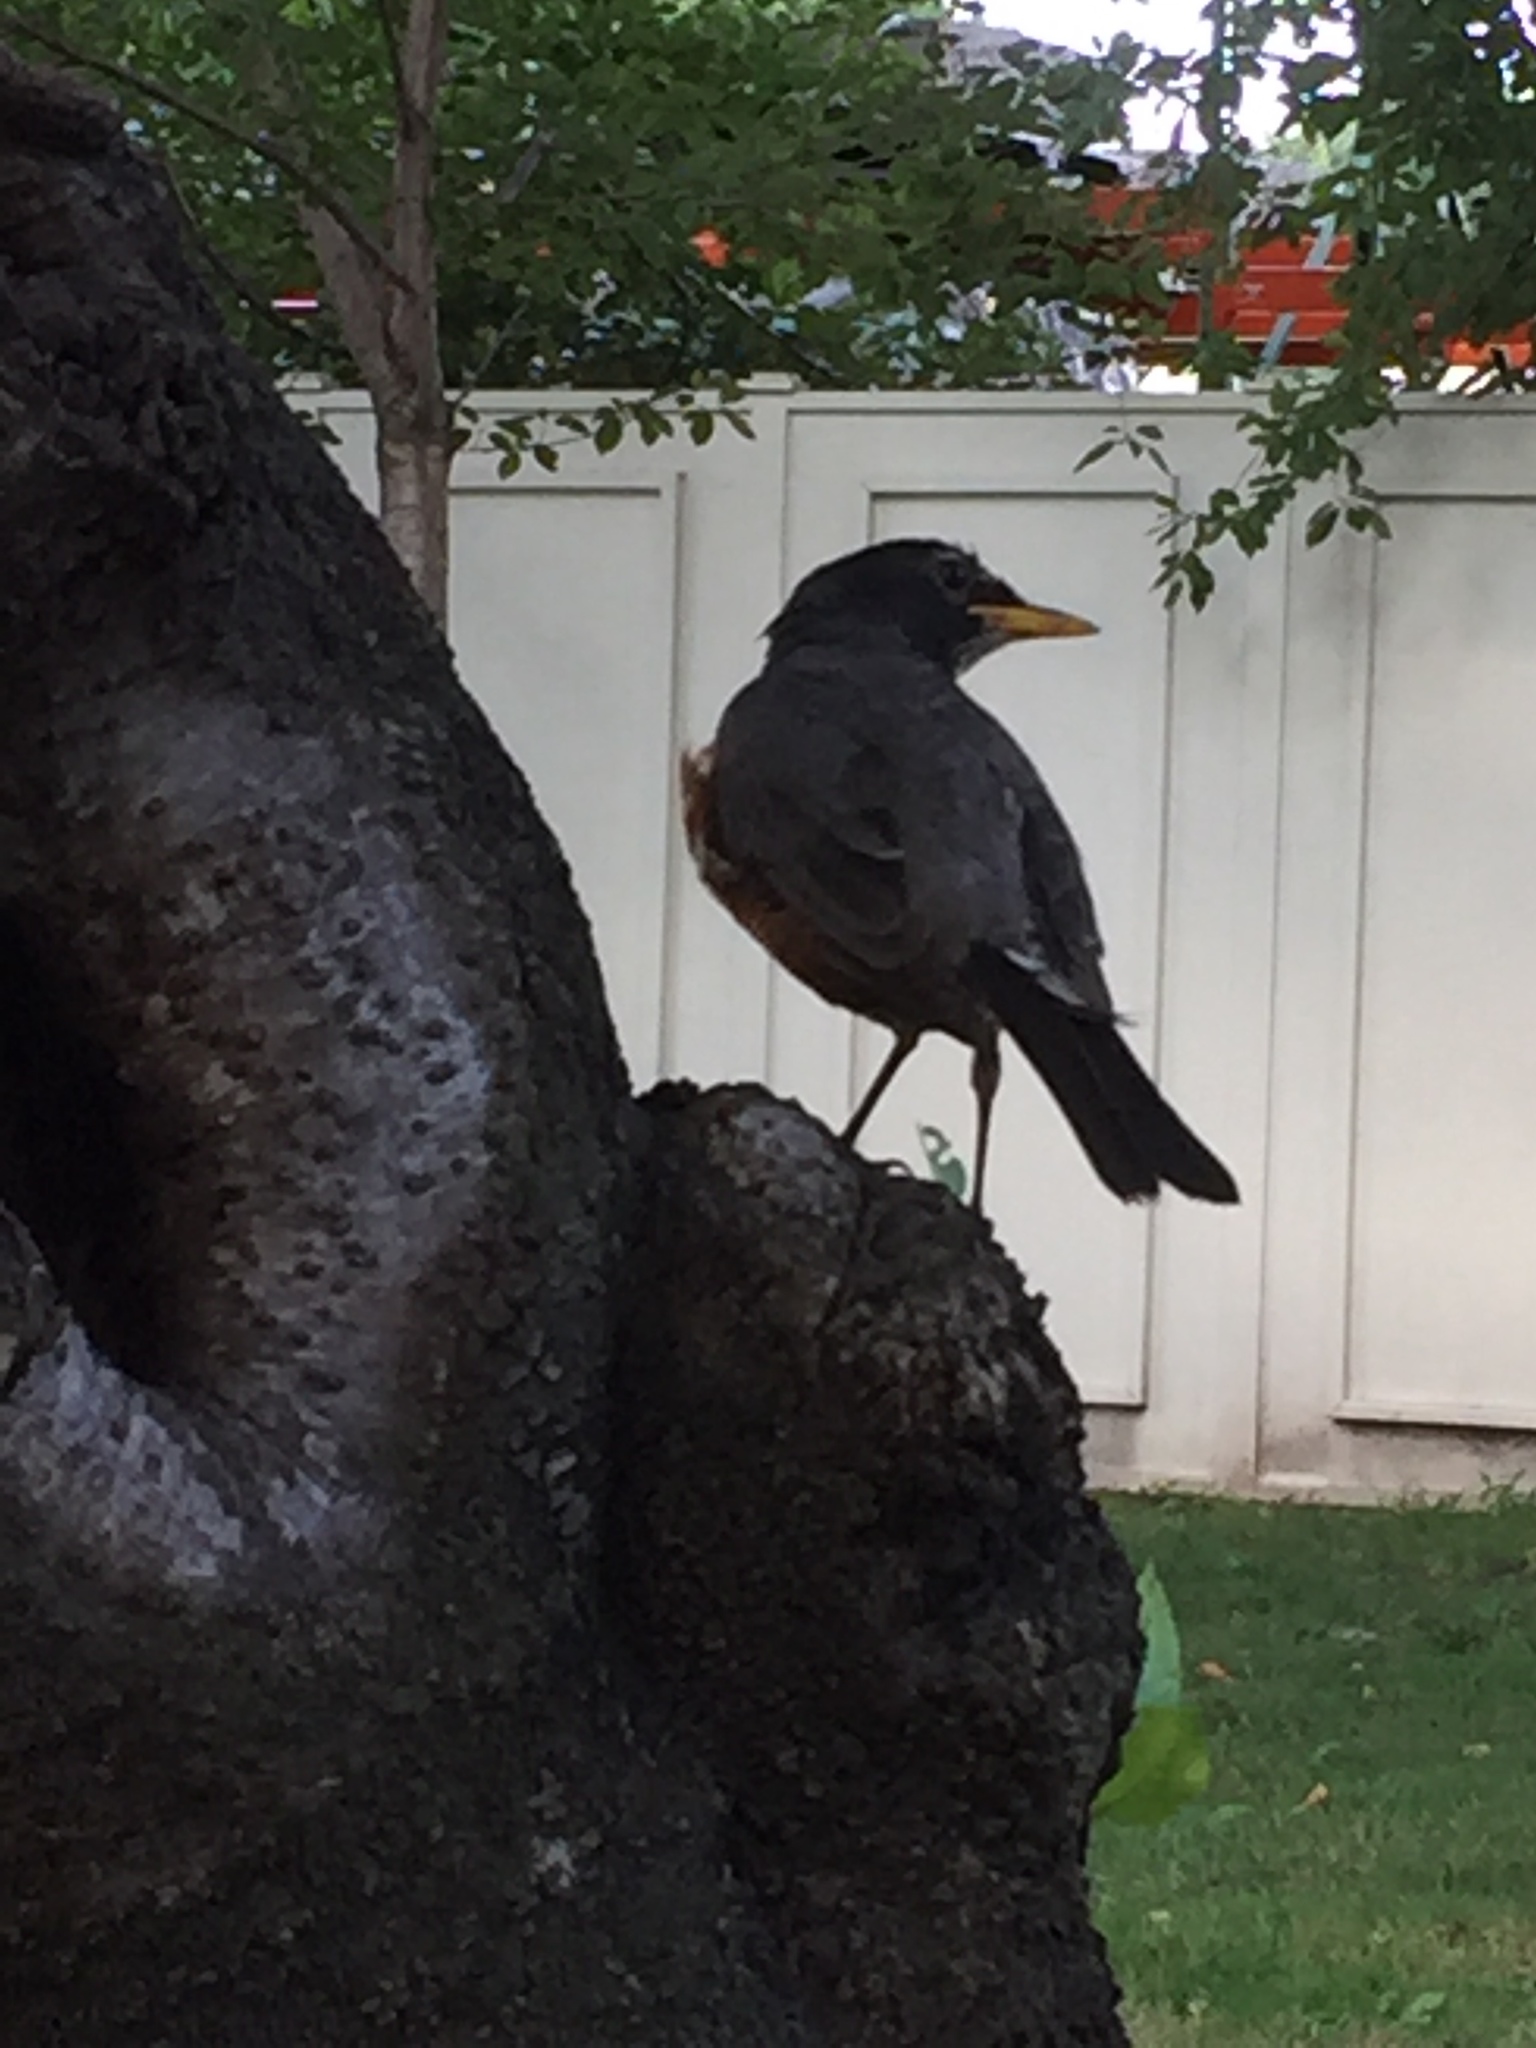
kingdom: Animalia
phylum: Chordata
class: Aves
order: Passeriformes
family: Turdidae
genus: Turdus
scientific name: Turdus migratorius
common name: American robin
